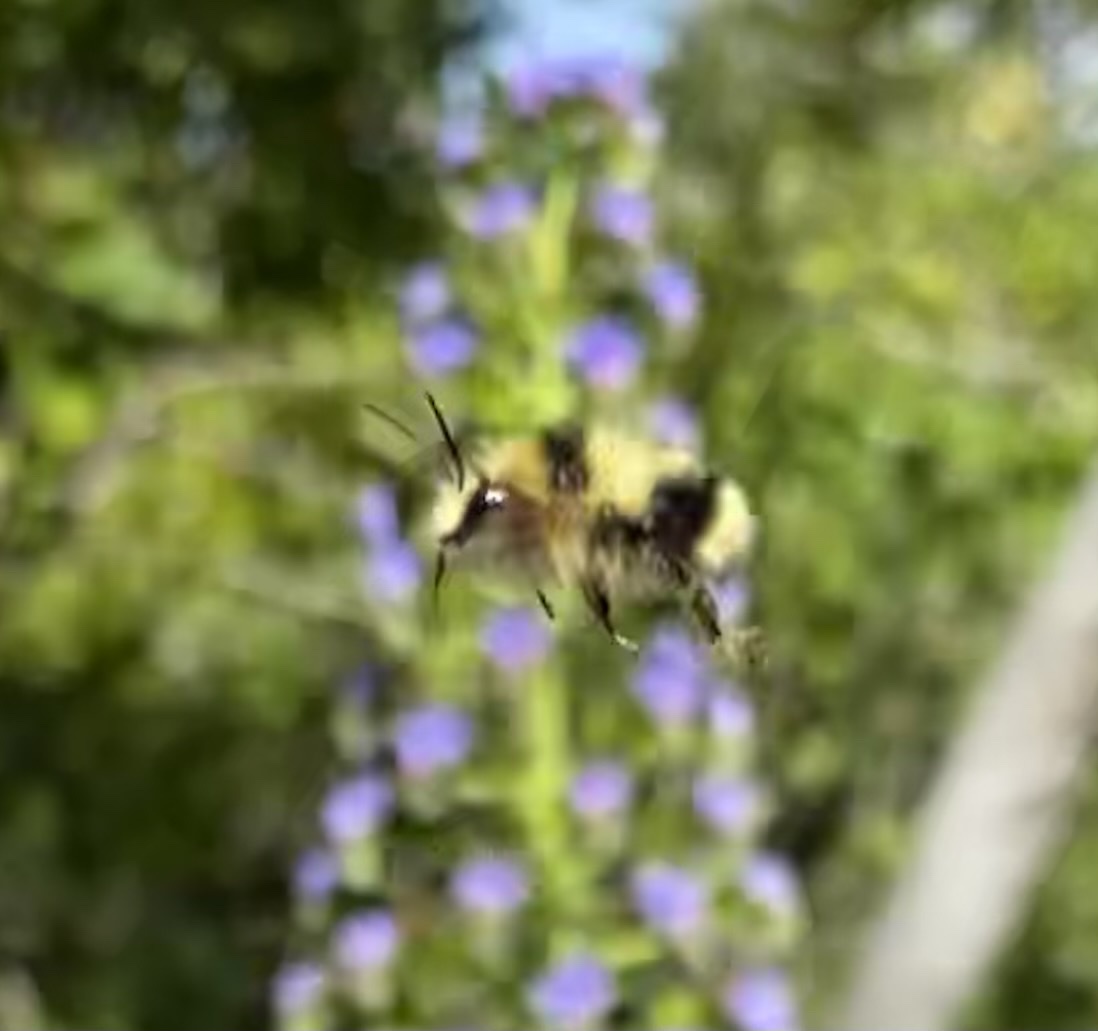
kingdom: Animalia
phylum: Arthropoda
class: Insecta
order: Hymenoptera
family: Apidae
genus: Bombus
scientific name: Bombus melanopygus
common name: Black tail bumble bee
